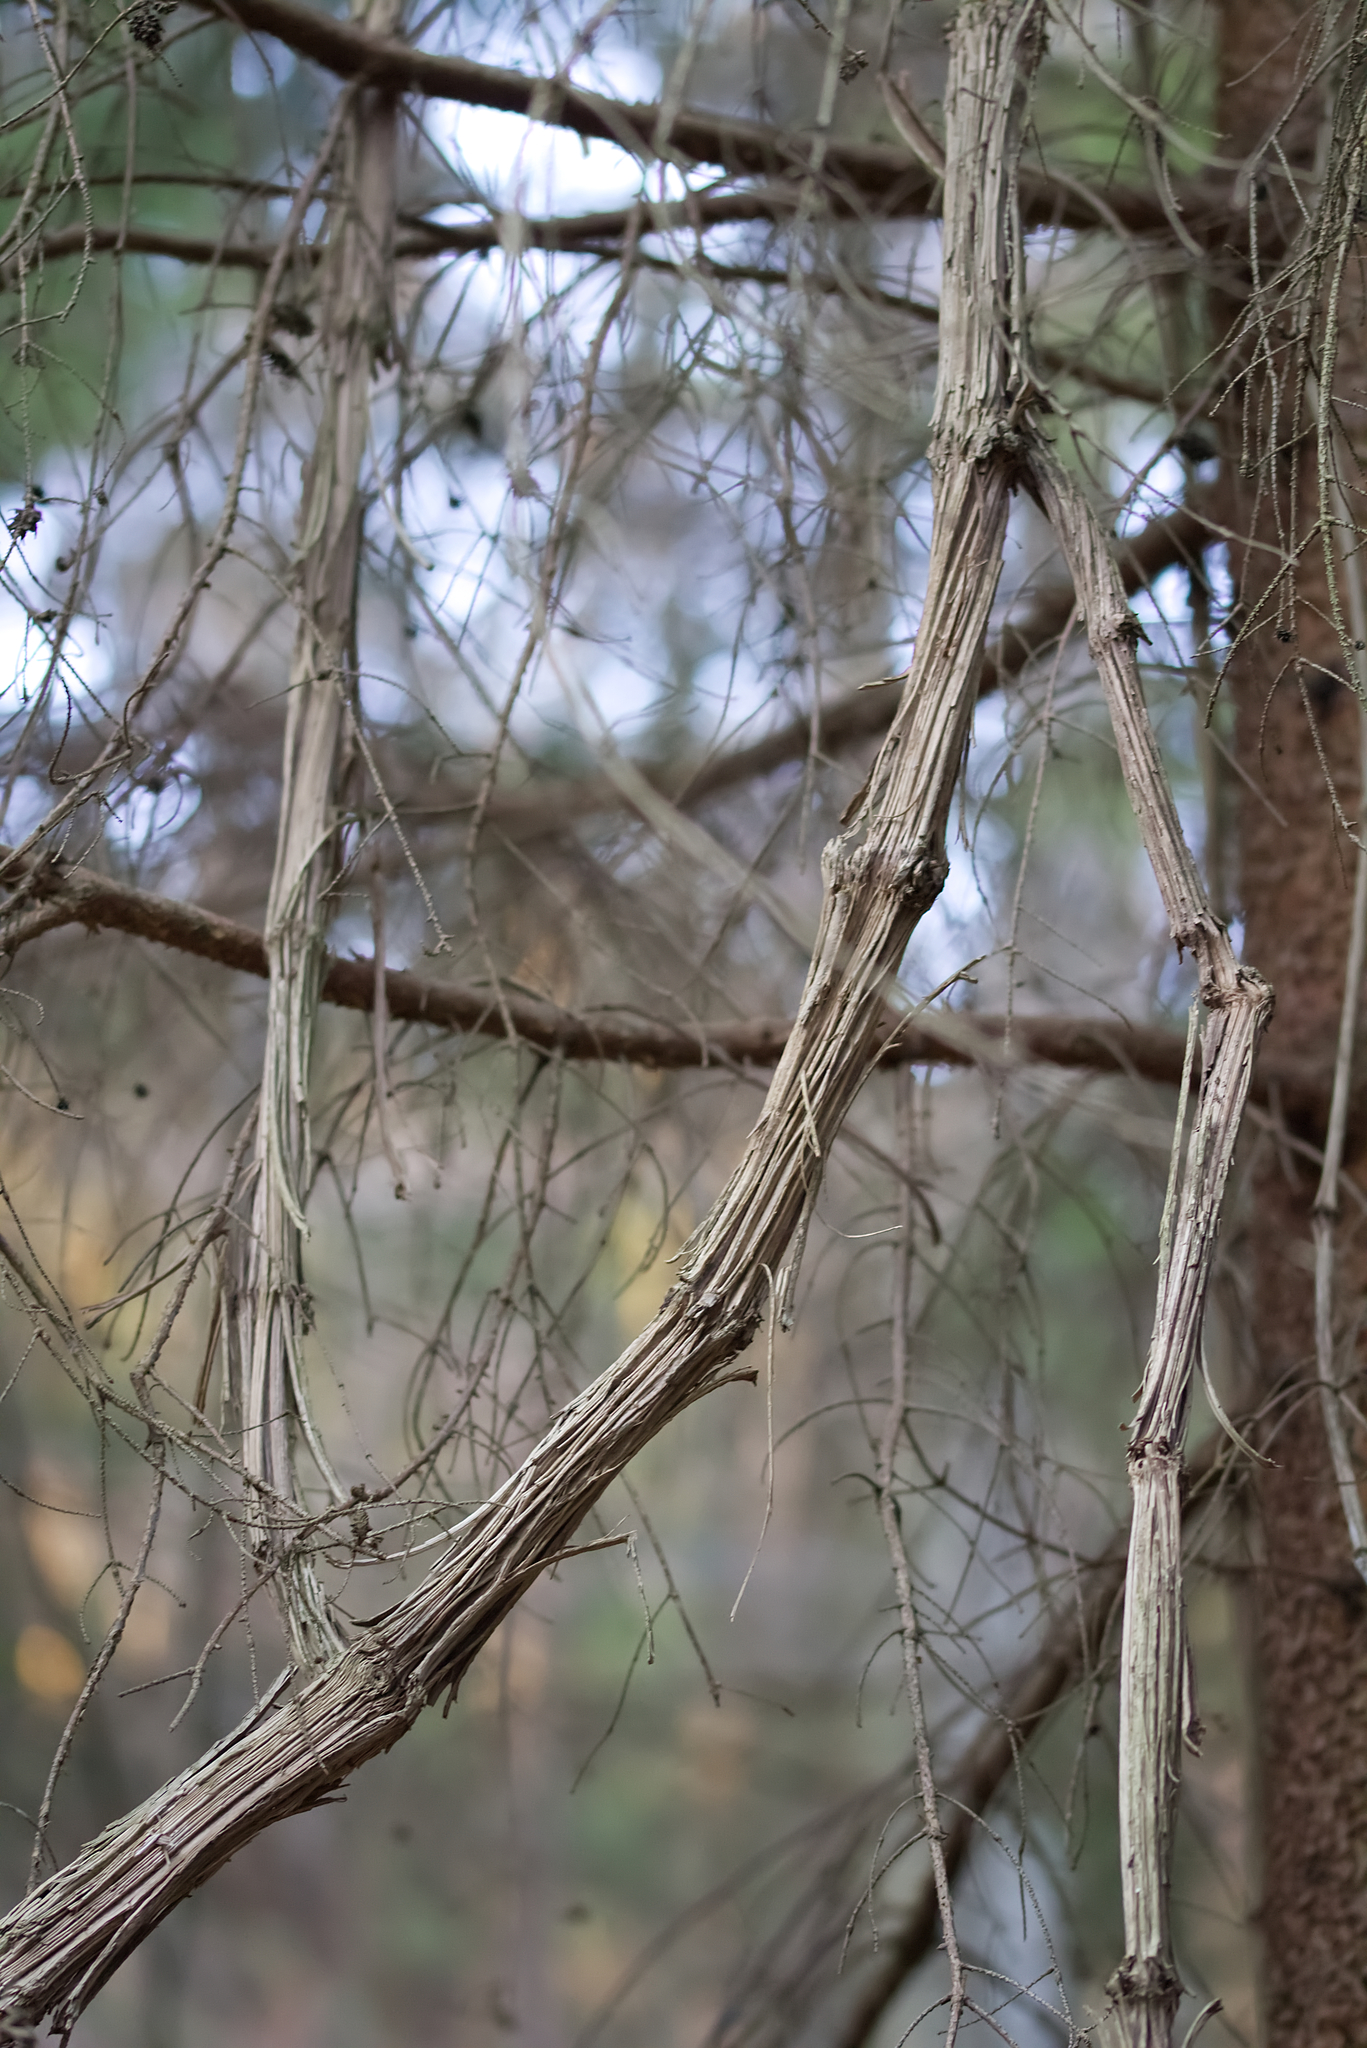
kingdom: Plantae
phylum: Tracheophyta
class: Magnoliopsida
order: Ranunculales
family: Ranunculaceae
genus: Clematis
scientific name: Clematis vitalba
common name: Evergreen clematis
